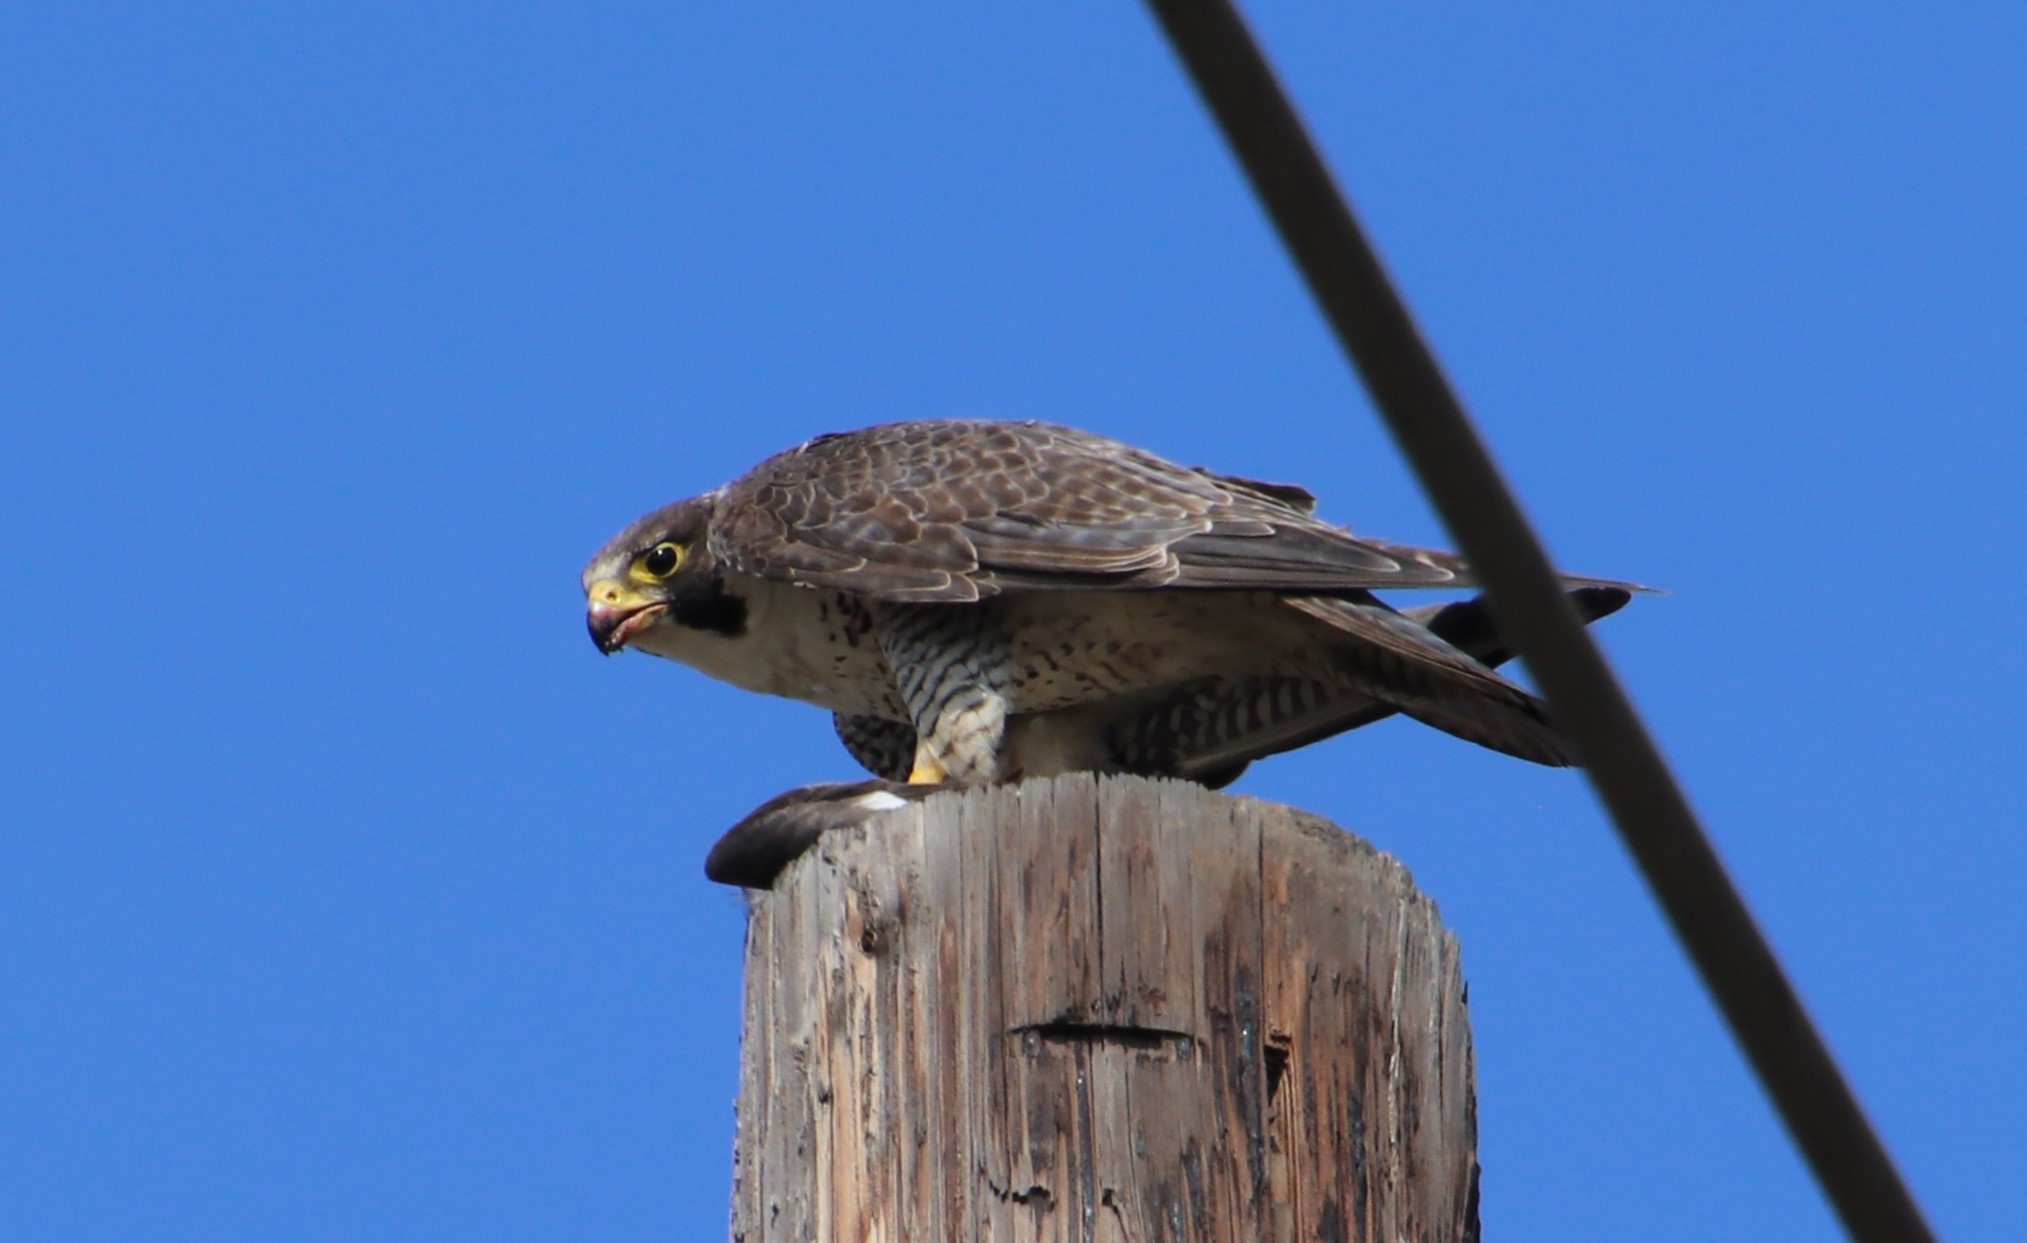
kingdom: Animalia
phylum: Chordata
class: Aves
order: Falconiformes
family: Falconidae
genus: Falco
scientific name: Falco peregrinus
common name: Peregrine falcon
